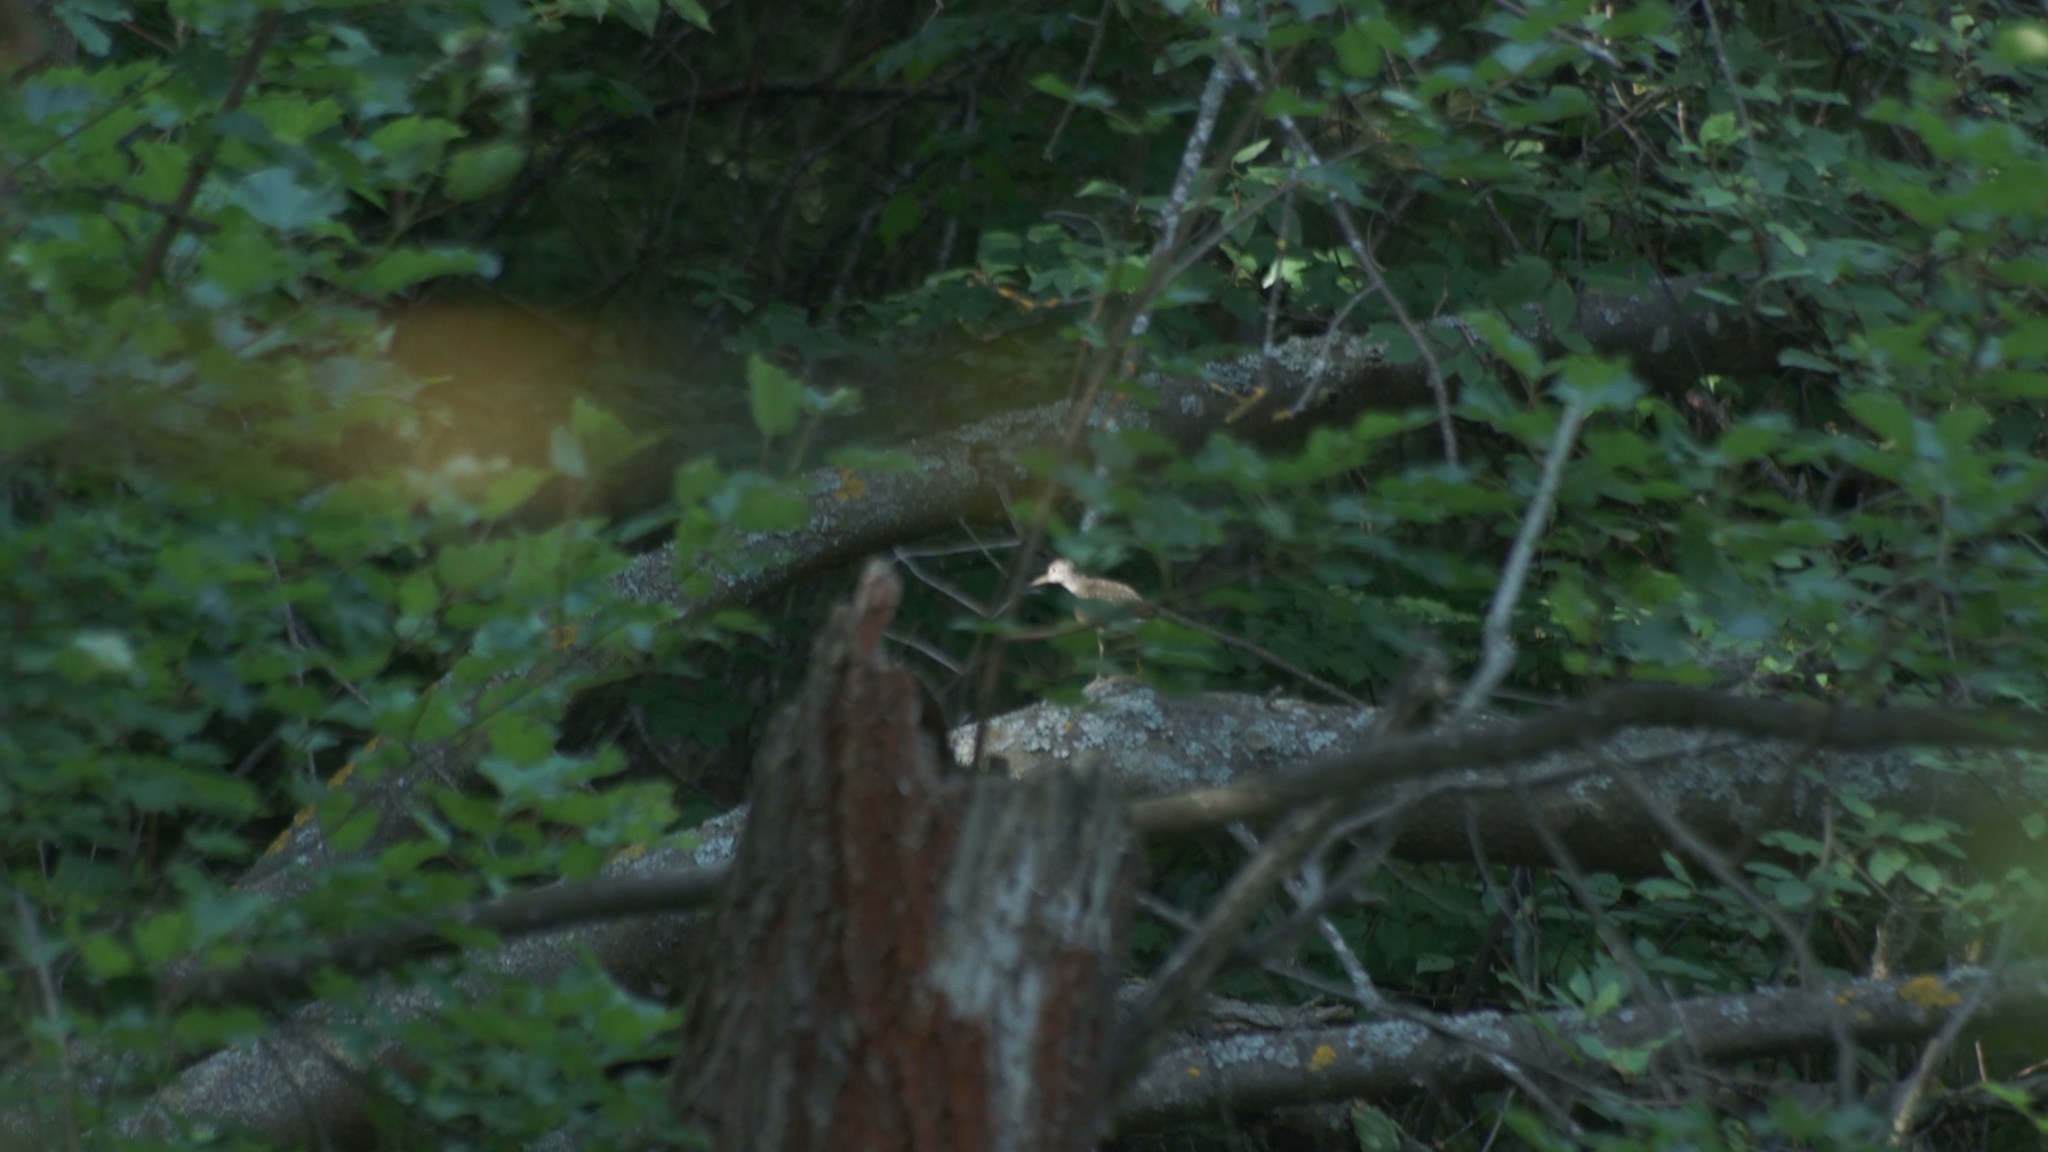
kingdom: Animalia
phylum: Chordata
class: Aves
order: Charadriiformes
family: Scolopacidae
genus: Tringa
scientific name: Tringa ochropus
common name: Green sandpiper
